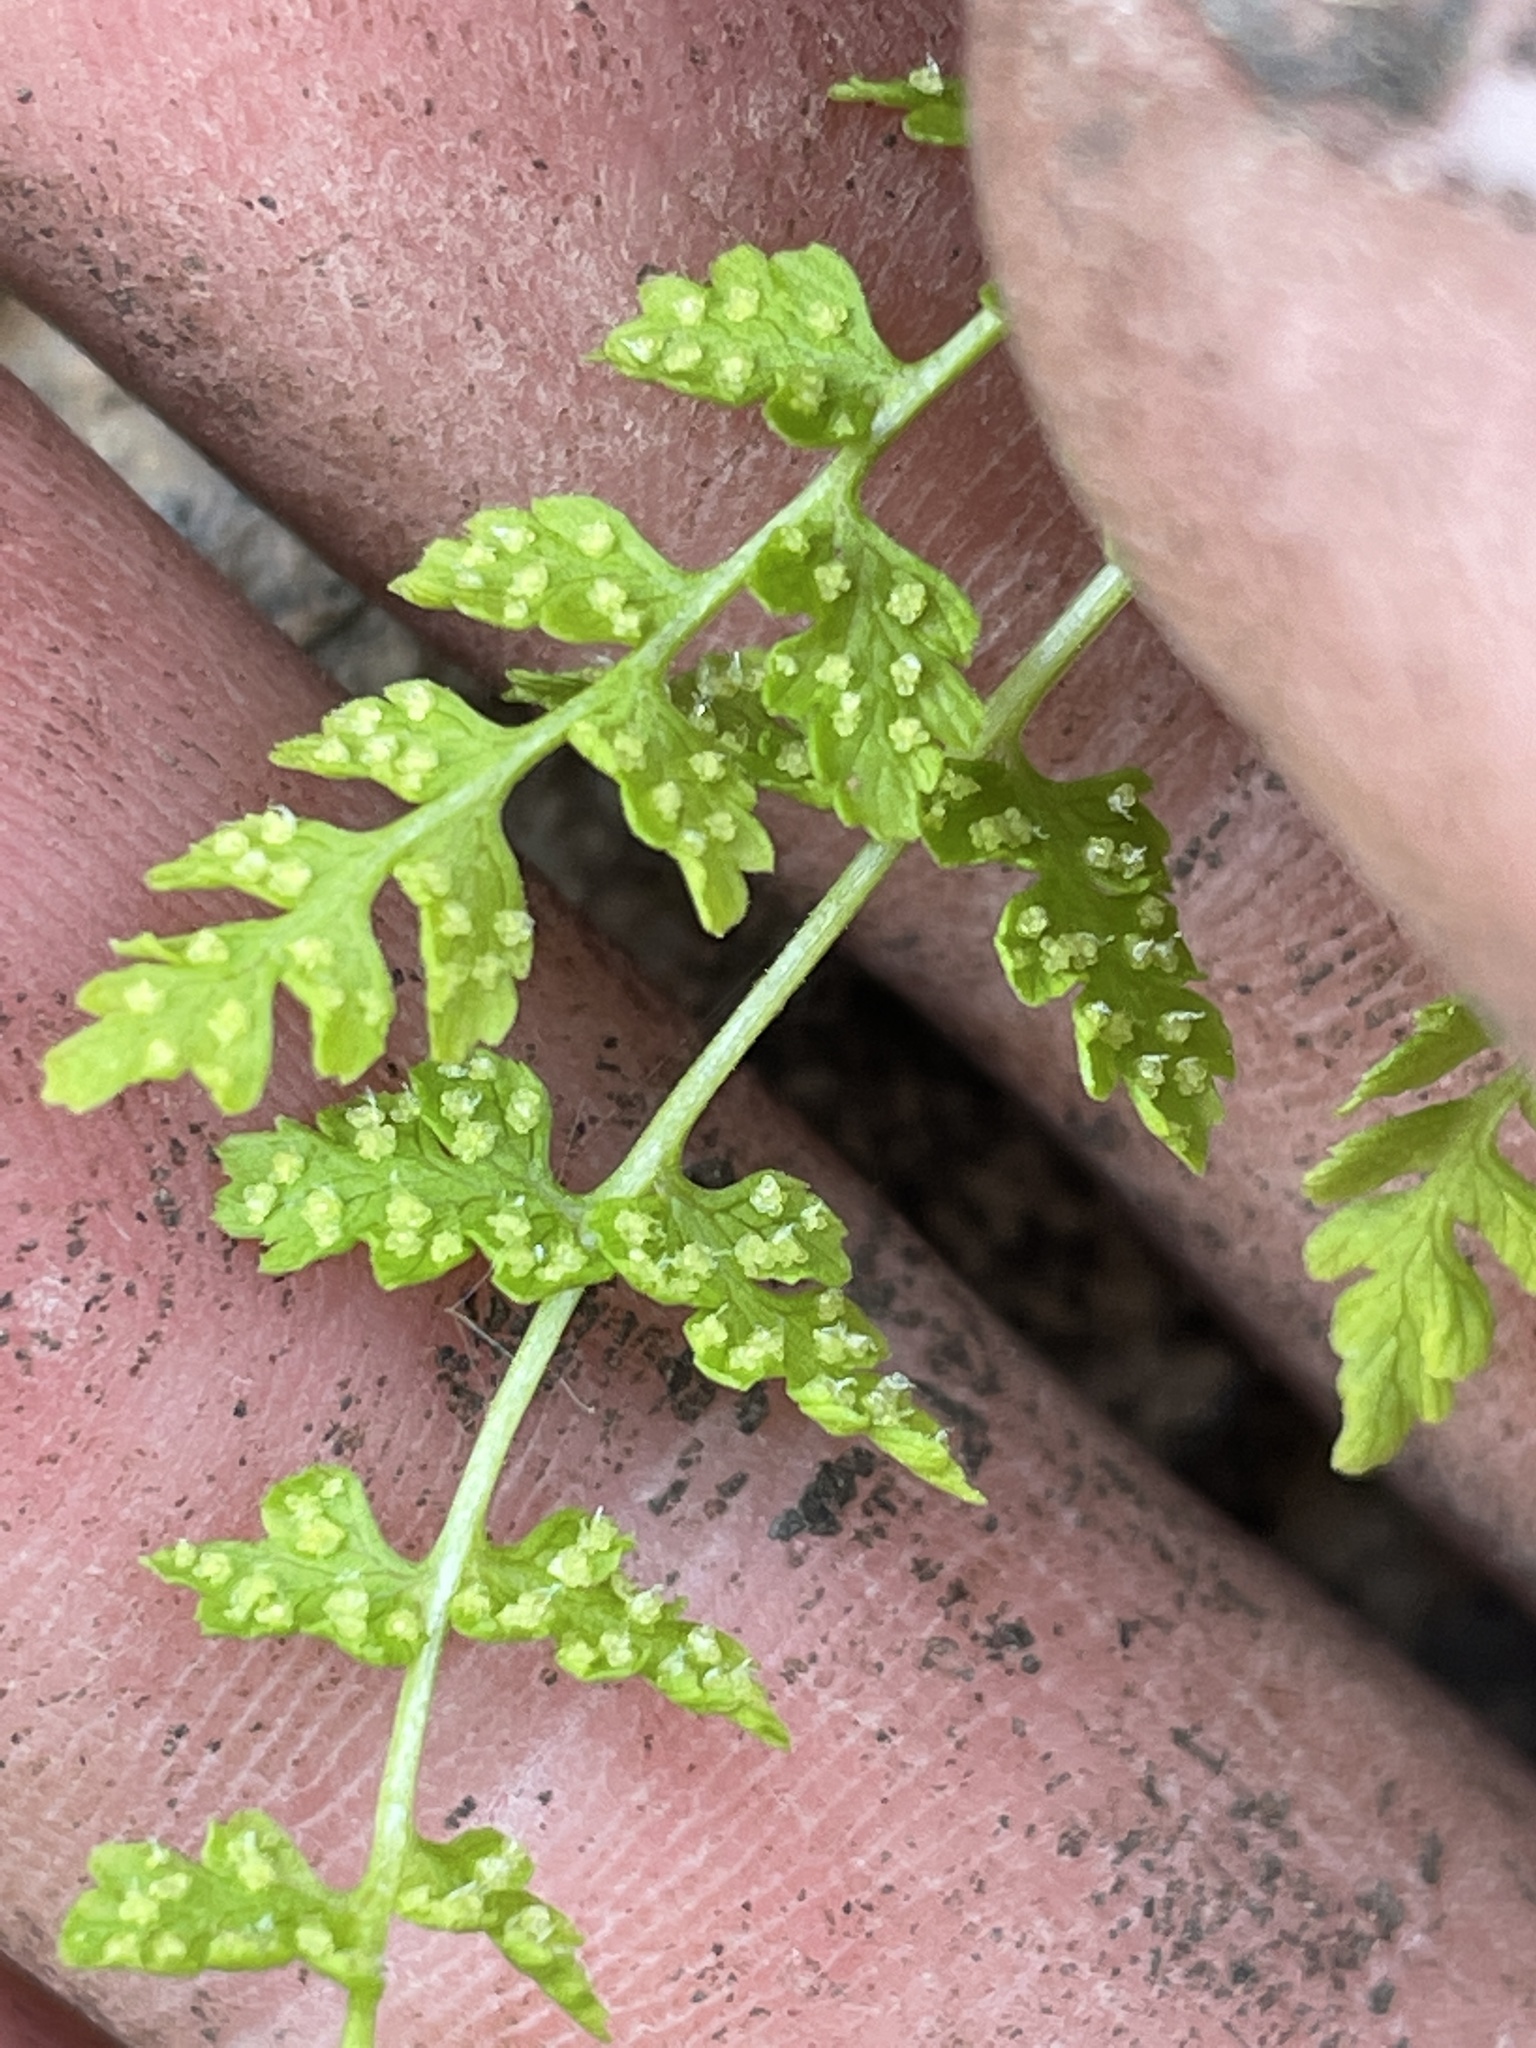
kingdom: Plantae
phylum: Tracheophyta
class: Polypodiopsida
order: Polypodiales
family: Cystopteridaceae
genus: Cystopteris
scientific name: Cystopteris fragilis
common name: Brittle bladder fern
